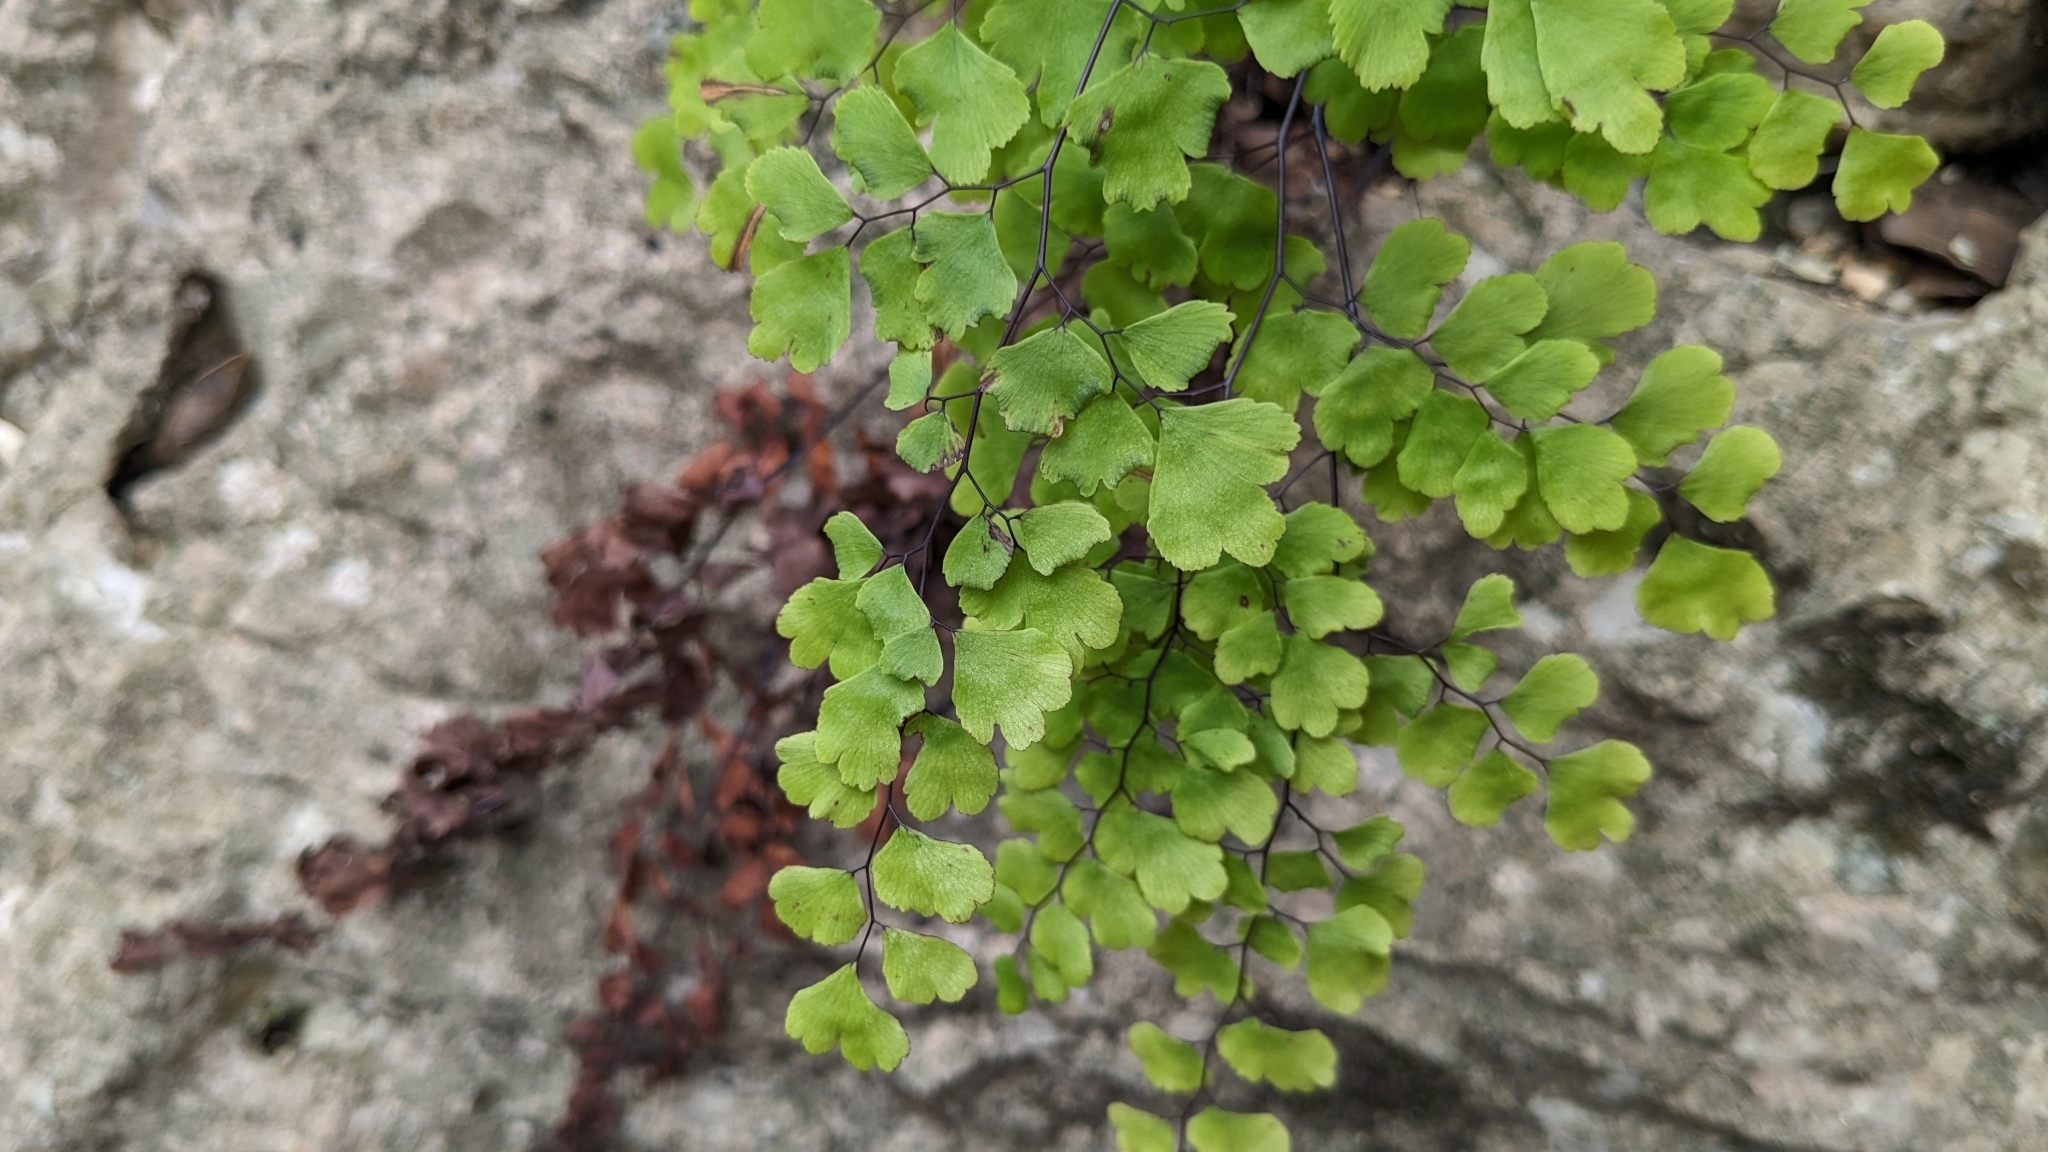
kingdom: Plantae
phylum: Tracheophyta
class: Polypodiopsida
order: Polypodiales
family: Pteridaceae
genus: Adiantum
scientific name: Adiantum capillus-veneris
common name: Maidenhair fern
